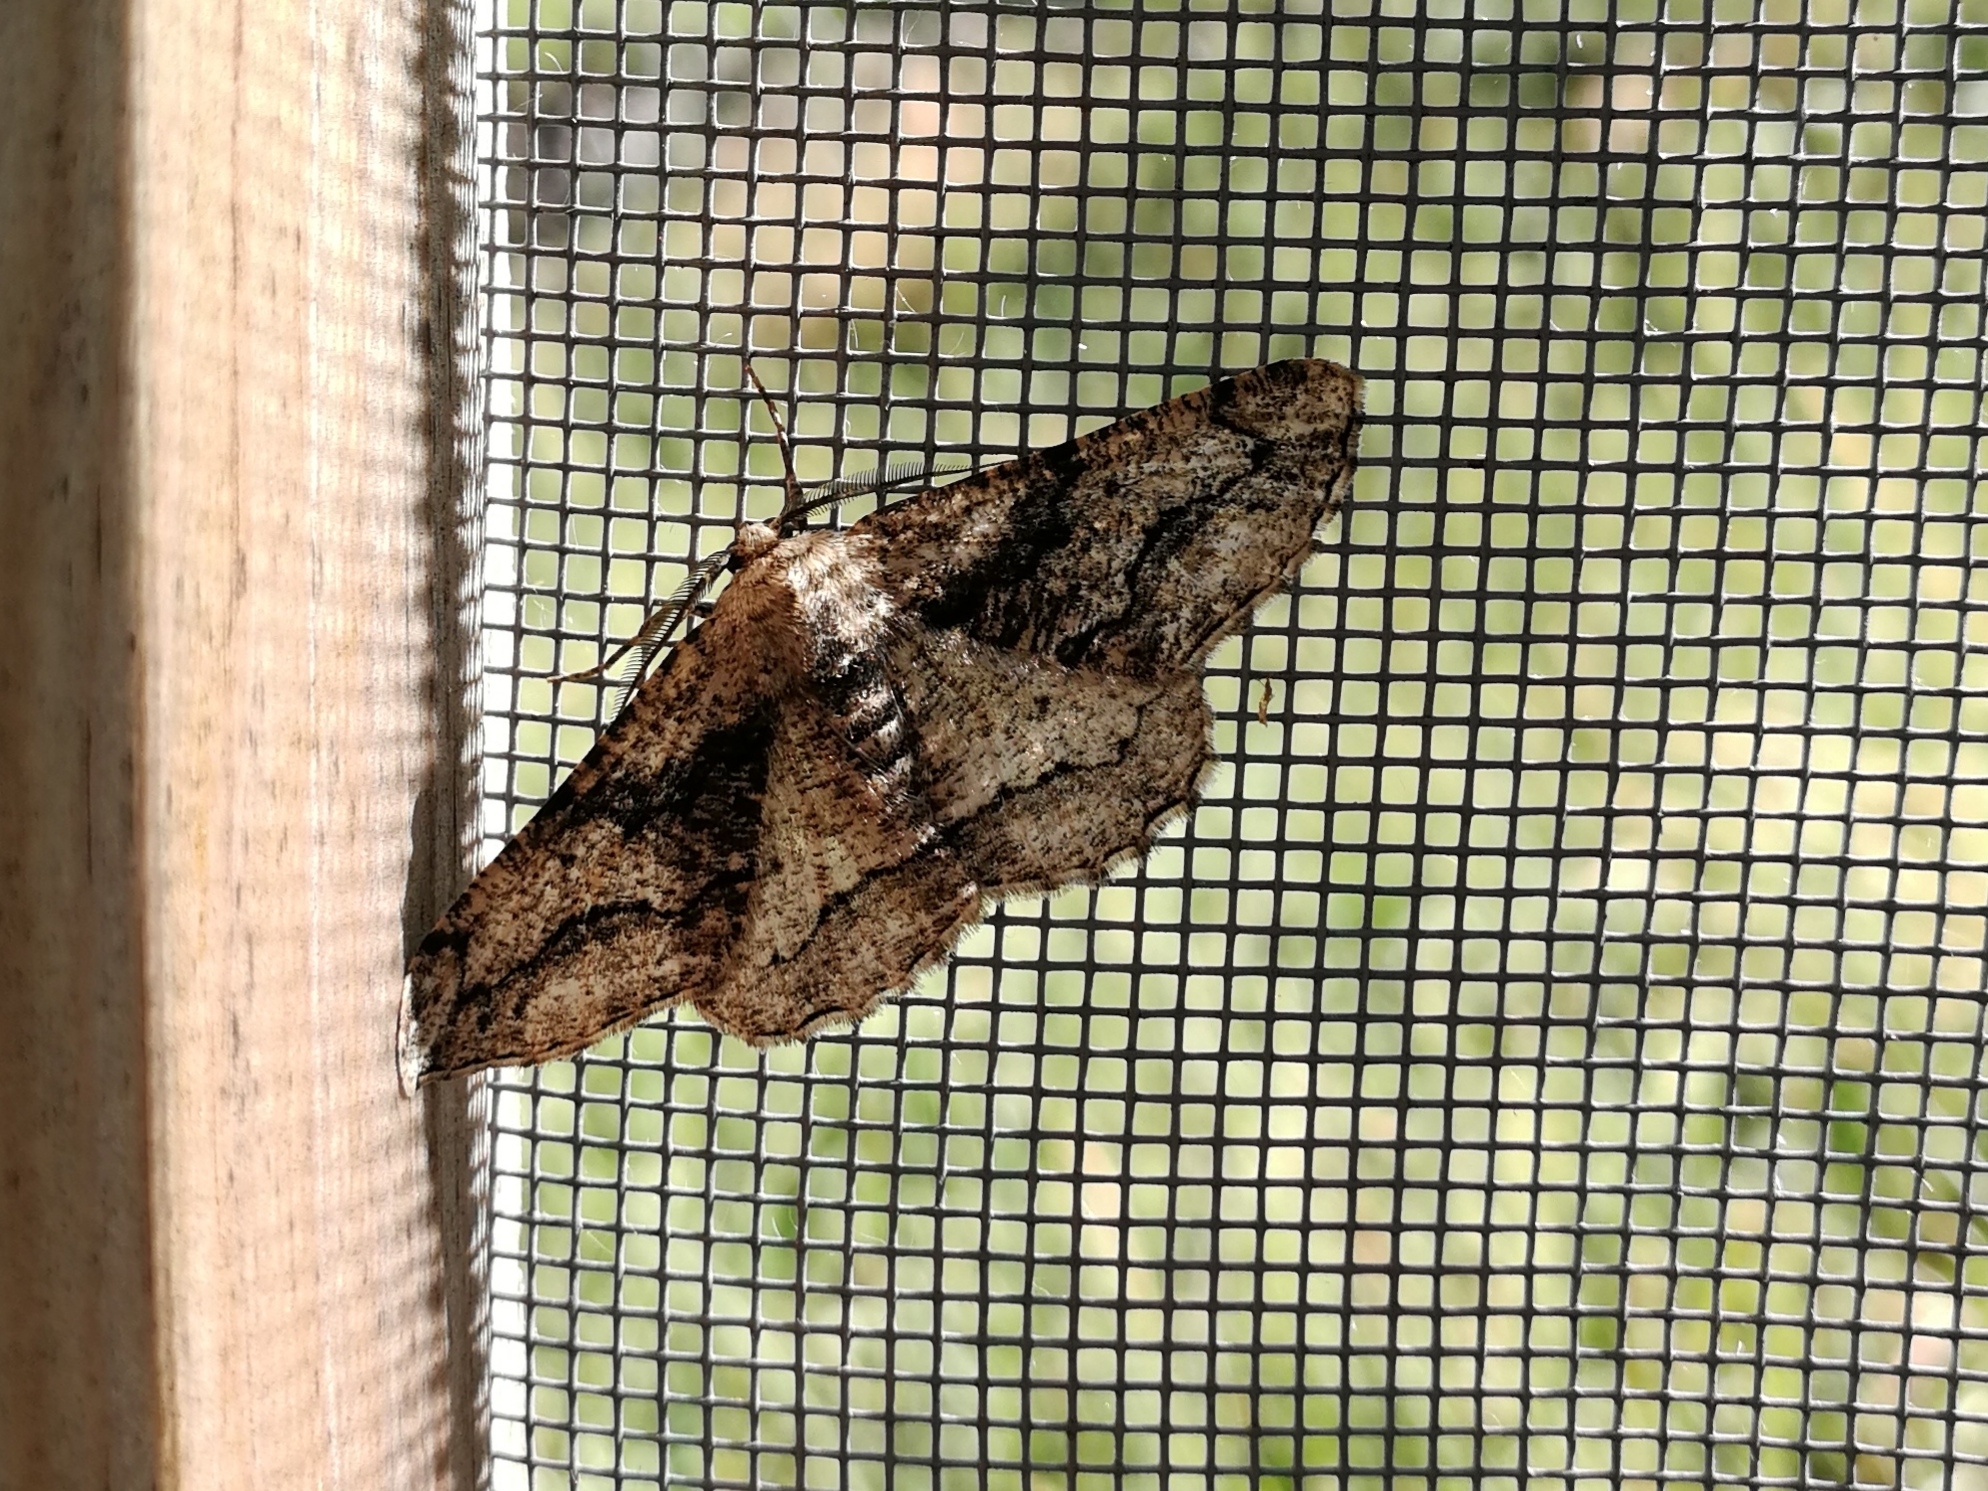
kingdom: Animalia
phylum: Arthropoda
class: Insecta
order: Lepidoptera
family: Geometridae
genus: Menophra
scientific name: Menophra japygiaria
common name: Brassy waved umber
